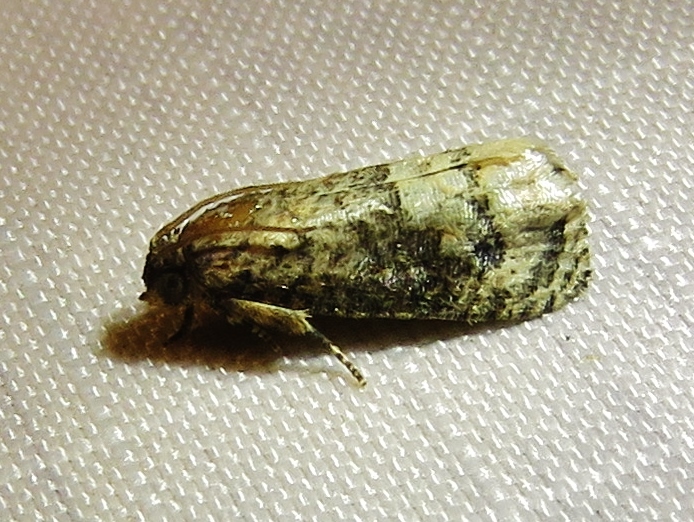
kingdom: Animalia
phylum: Arthropoda
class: Insecta
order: Lepidoptera
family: Tortricidae
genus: Ecdytolopha
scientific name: Ecdytolopha mana
